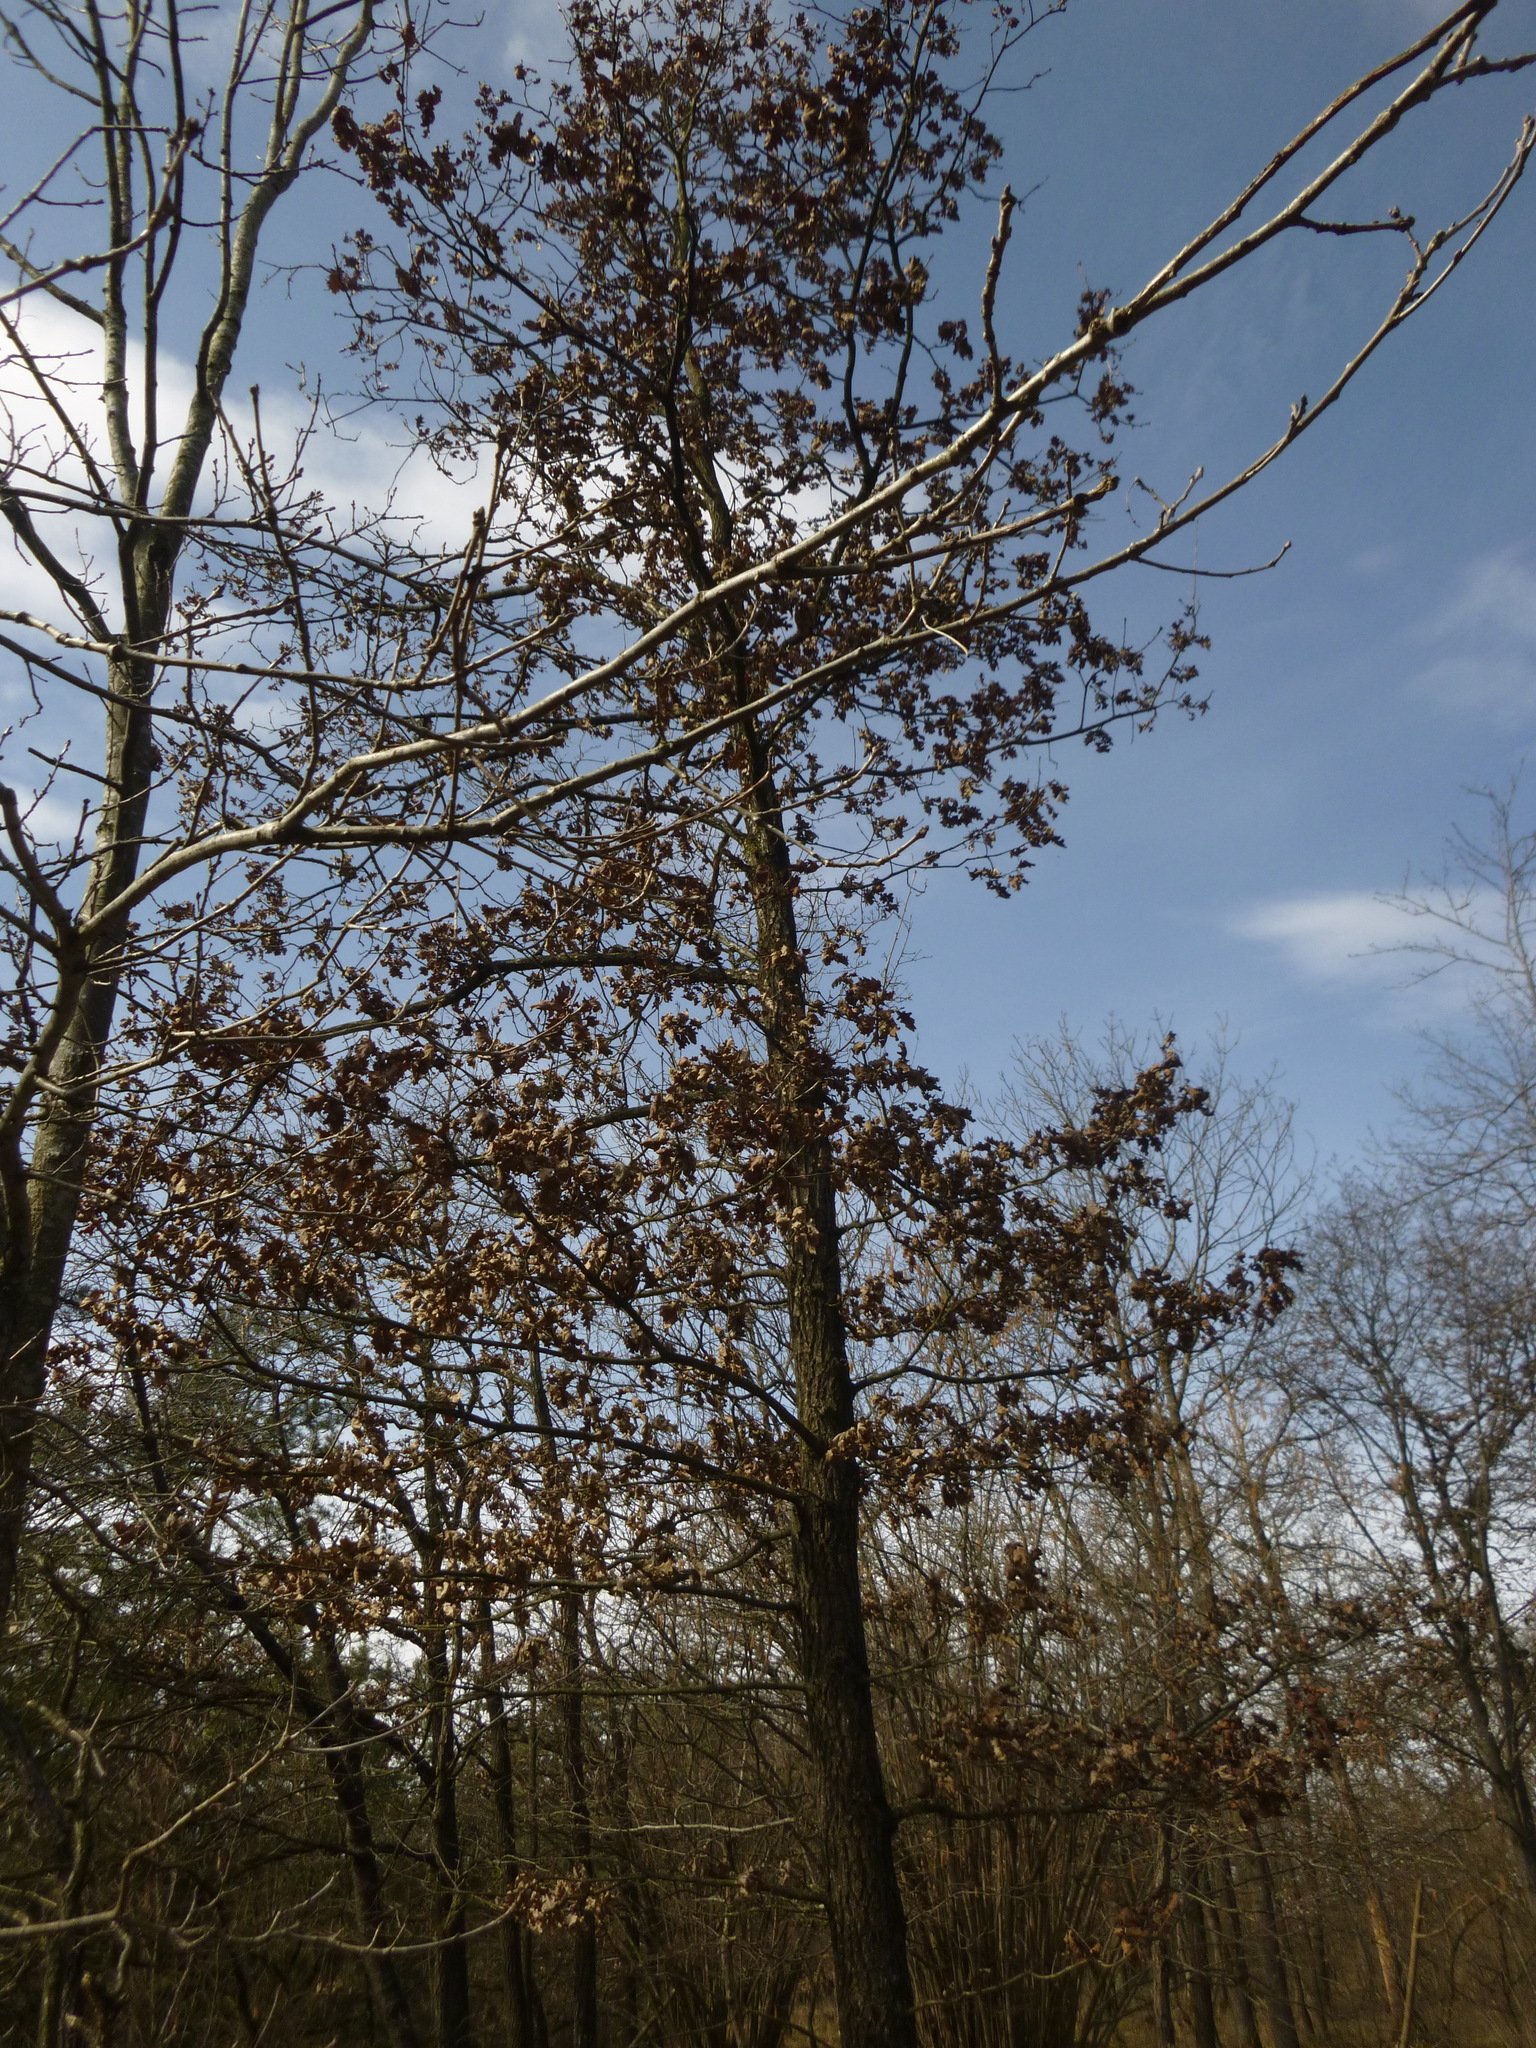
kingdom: Plantae
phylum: Tracheophyta
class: Magnoliopsida
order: Fagales
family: Fagaceae
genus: Quercus
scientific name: Quercus robur
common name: Pedunculate oak
